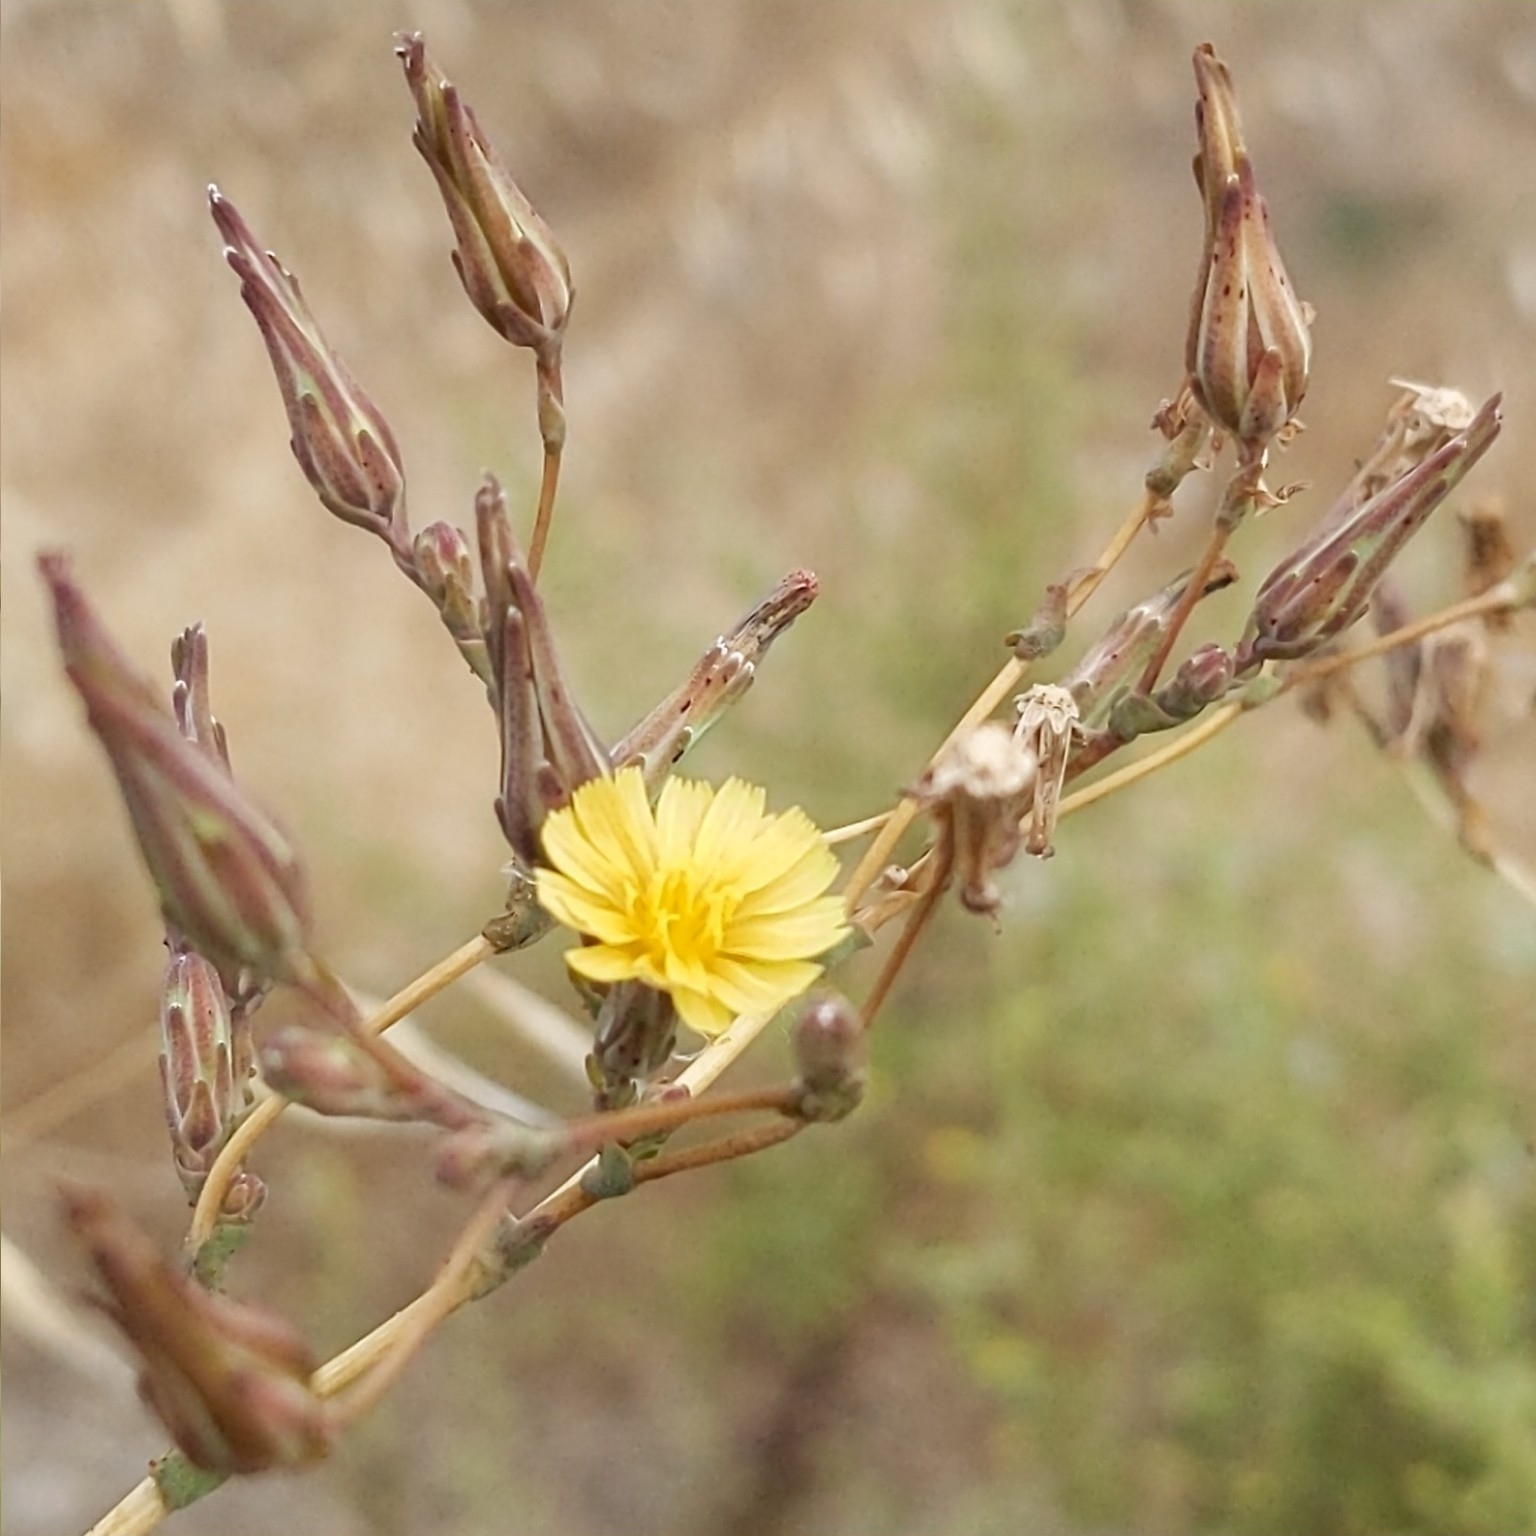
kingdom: Plantae
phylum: Tracheophyta
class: Magnoliopsida
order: Asterales
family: Asteraceae
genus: Lactuca
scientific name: Lactuca serriola
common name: Prickly lettuce
